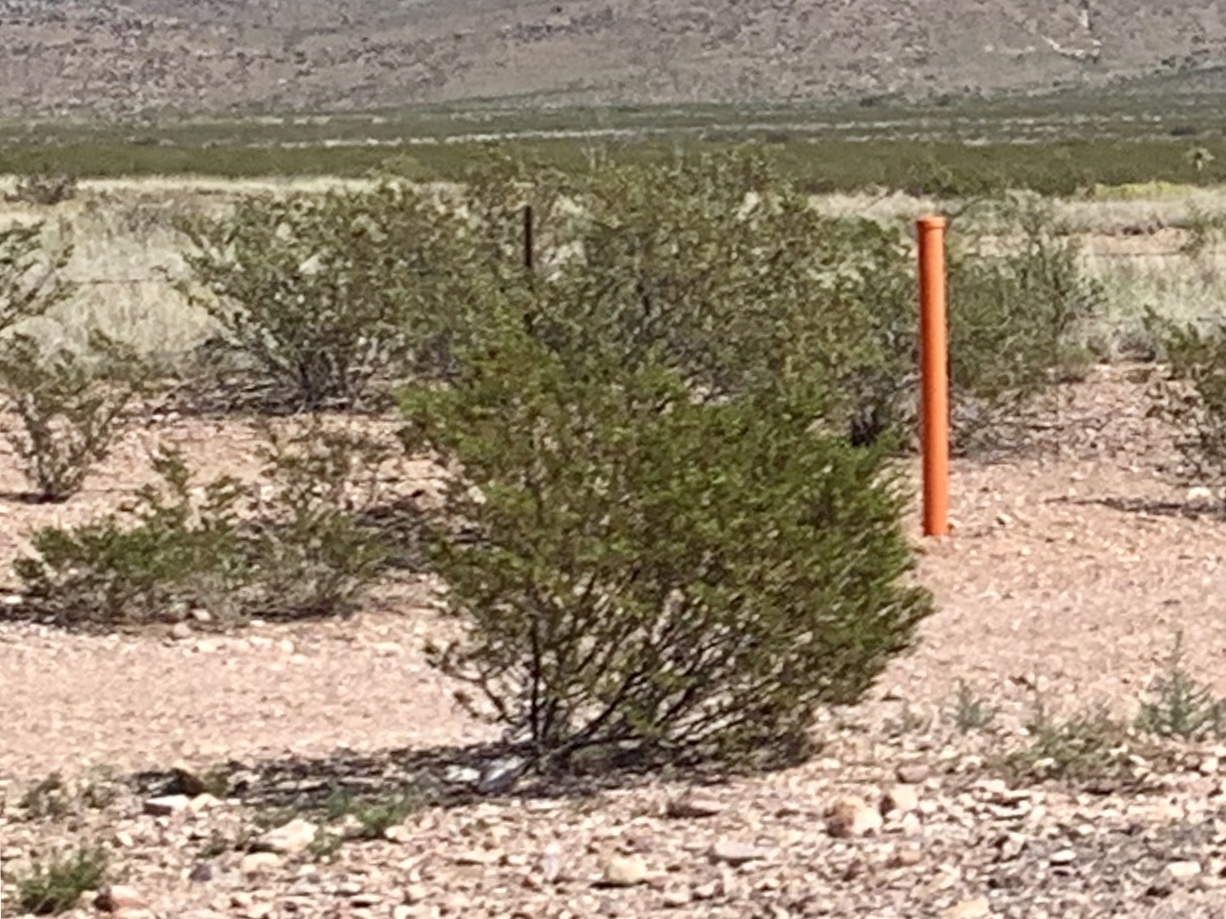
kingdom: Plantae
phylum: Tracheophyta
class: Magnoliopsida
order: Zygophyllales
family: Zygophyllaceae
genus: Larrea
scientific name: Larrea tridentata
